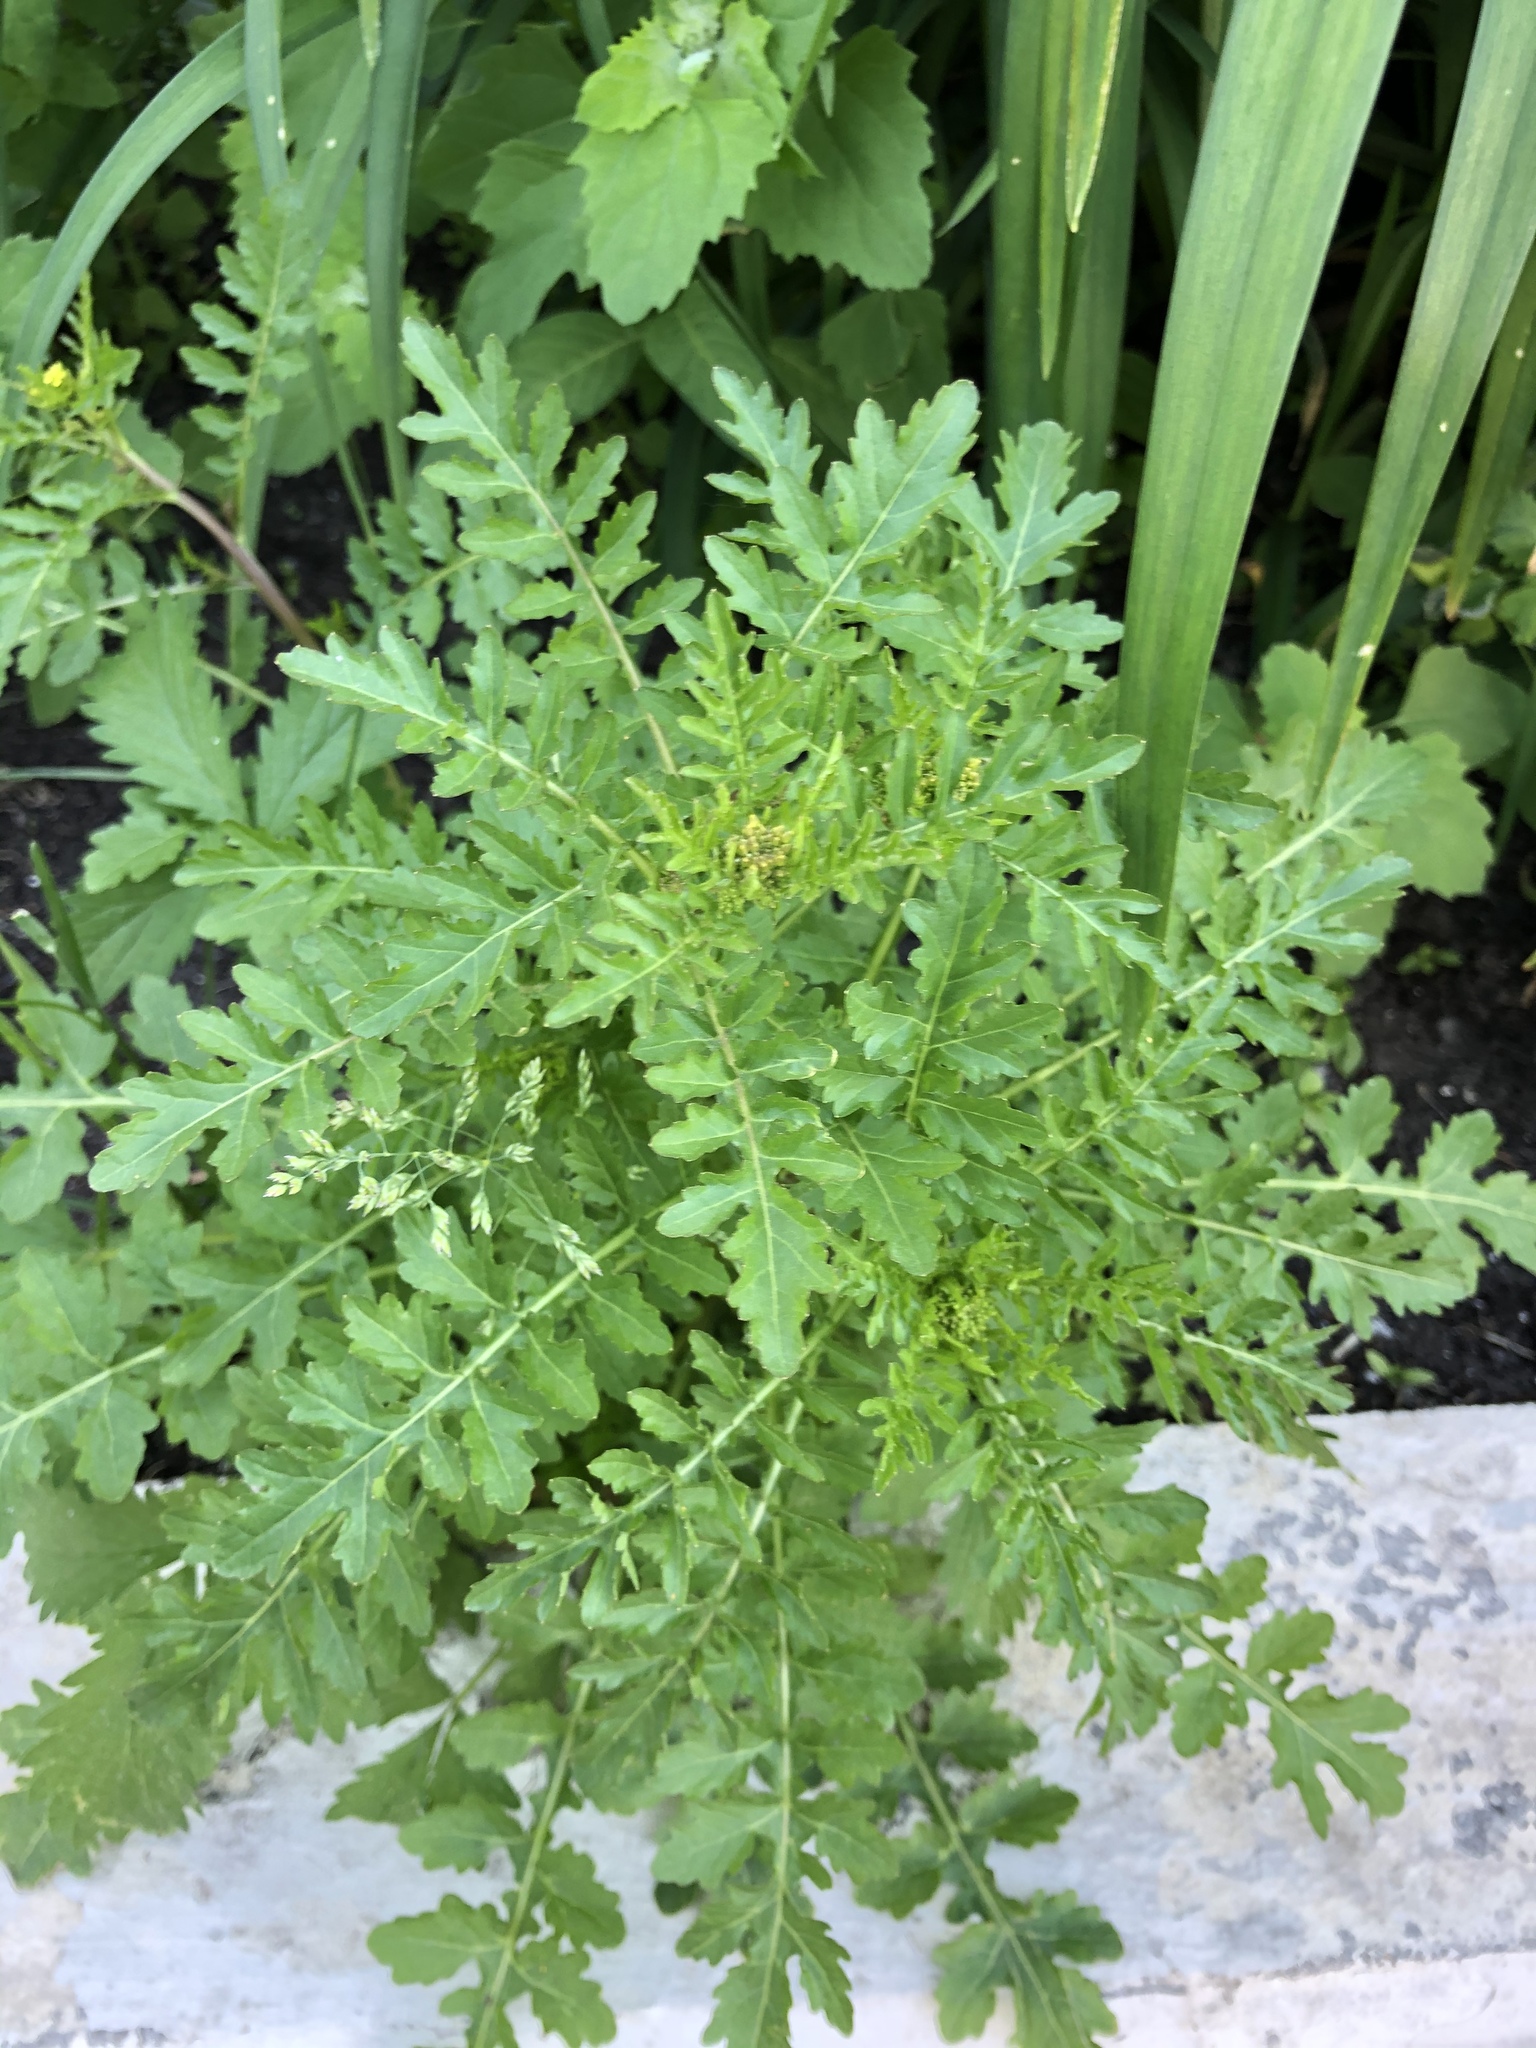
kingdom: Plantae
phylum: Tracheophyta
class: Magnoliopsida
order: Brassicales
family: Brassicaceae
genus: Rorippa
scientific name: Rorippa palustris
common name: Marsh yellow-cress
